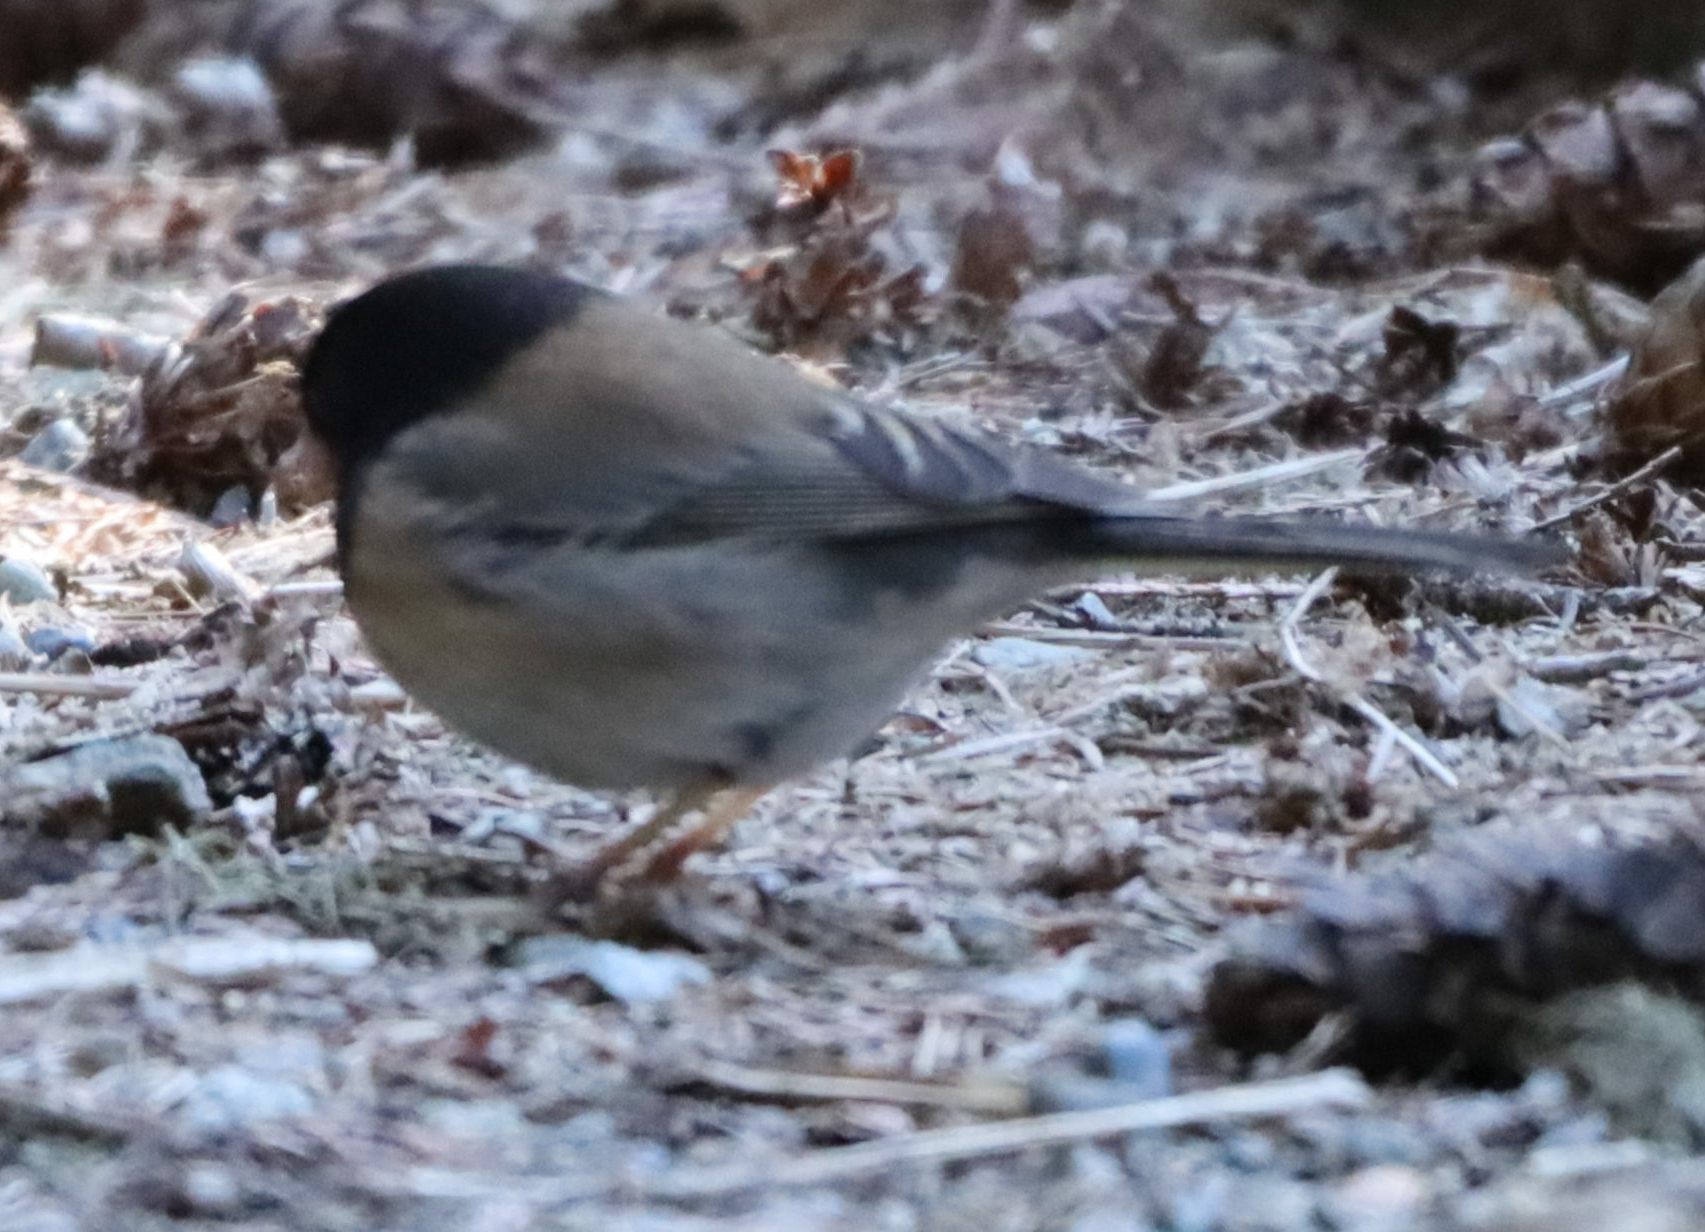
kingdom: Animalia
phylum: Chordata
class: Aves
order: Passeriformes
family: Passerellidae
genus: Junco
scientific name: Junco hyemalis
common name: Dark-eyed junco
